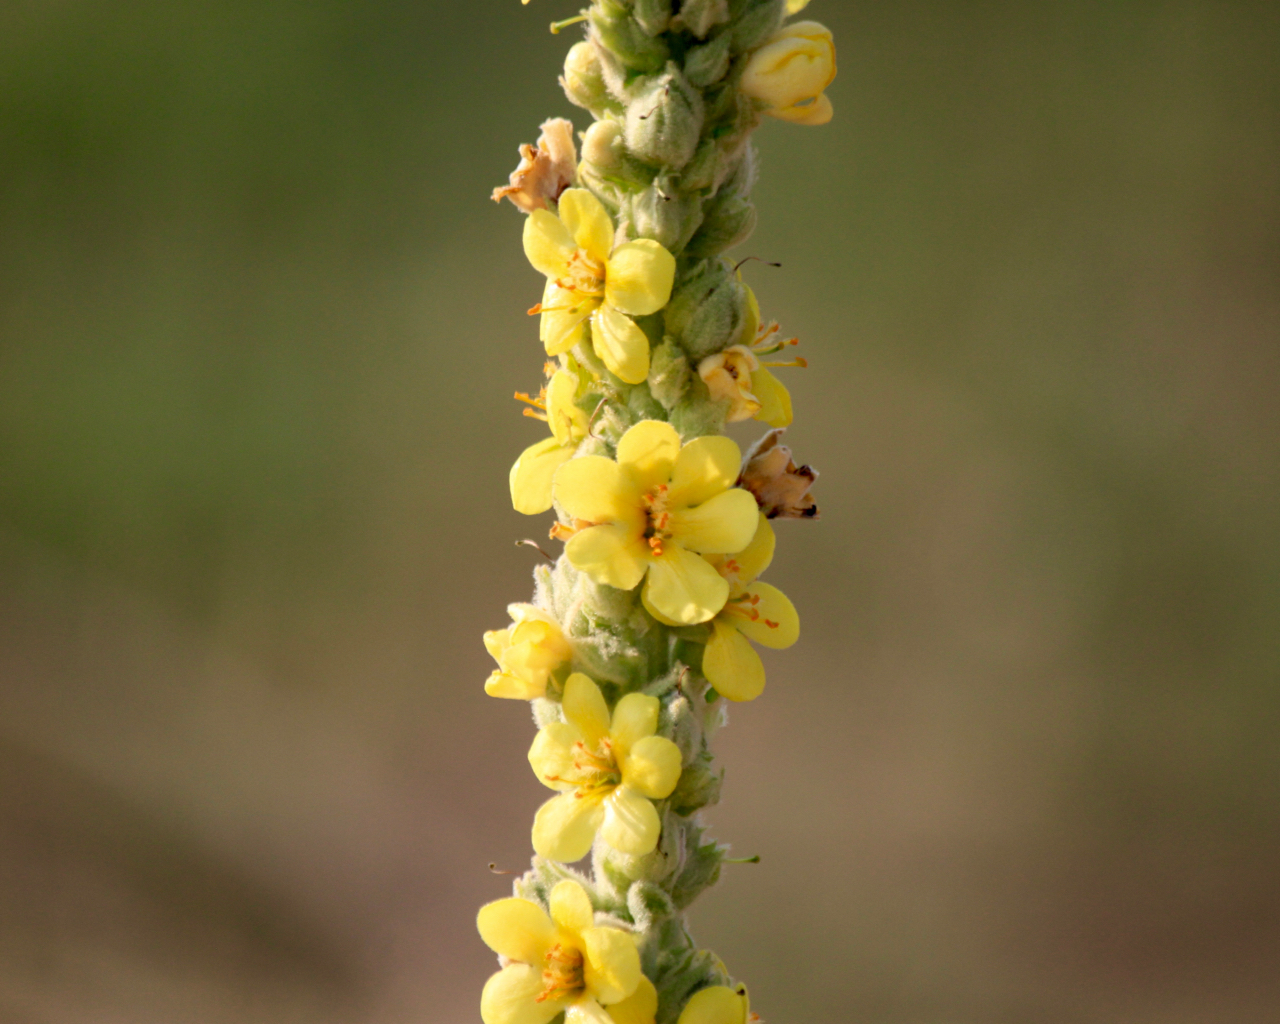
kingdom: Plantae
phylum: Tracheophyta
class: Magnoliopsida
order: Lamiales
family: Scrophulariaceae
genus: Verbascum
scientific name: Verbascum thapsus
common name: Common mullein
